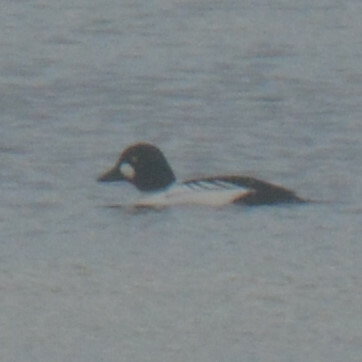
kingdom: Animalia
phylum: Chordata
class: Aves
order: Anseriformes
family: Anatidae
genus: Bucephala
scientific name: Bucephala clangula
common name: Common goldeneye
